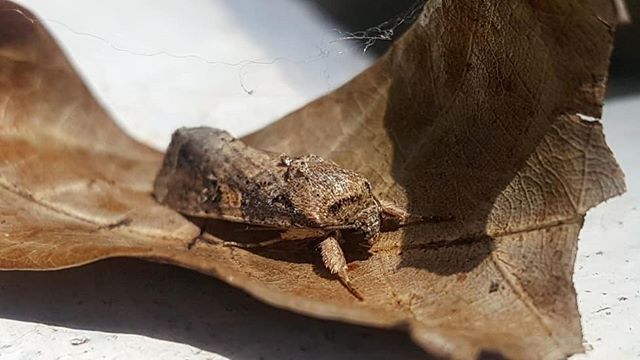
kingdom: Animalia
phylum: Arthropoda
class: Insecta
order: Lepidoptera
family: Noctuidae
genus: Spodoptera
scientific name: Spodoptera frugiperda
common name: Fall armyworm
